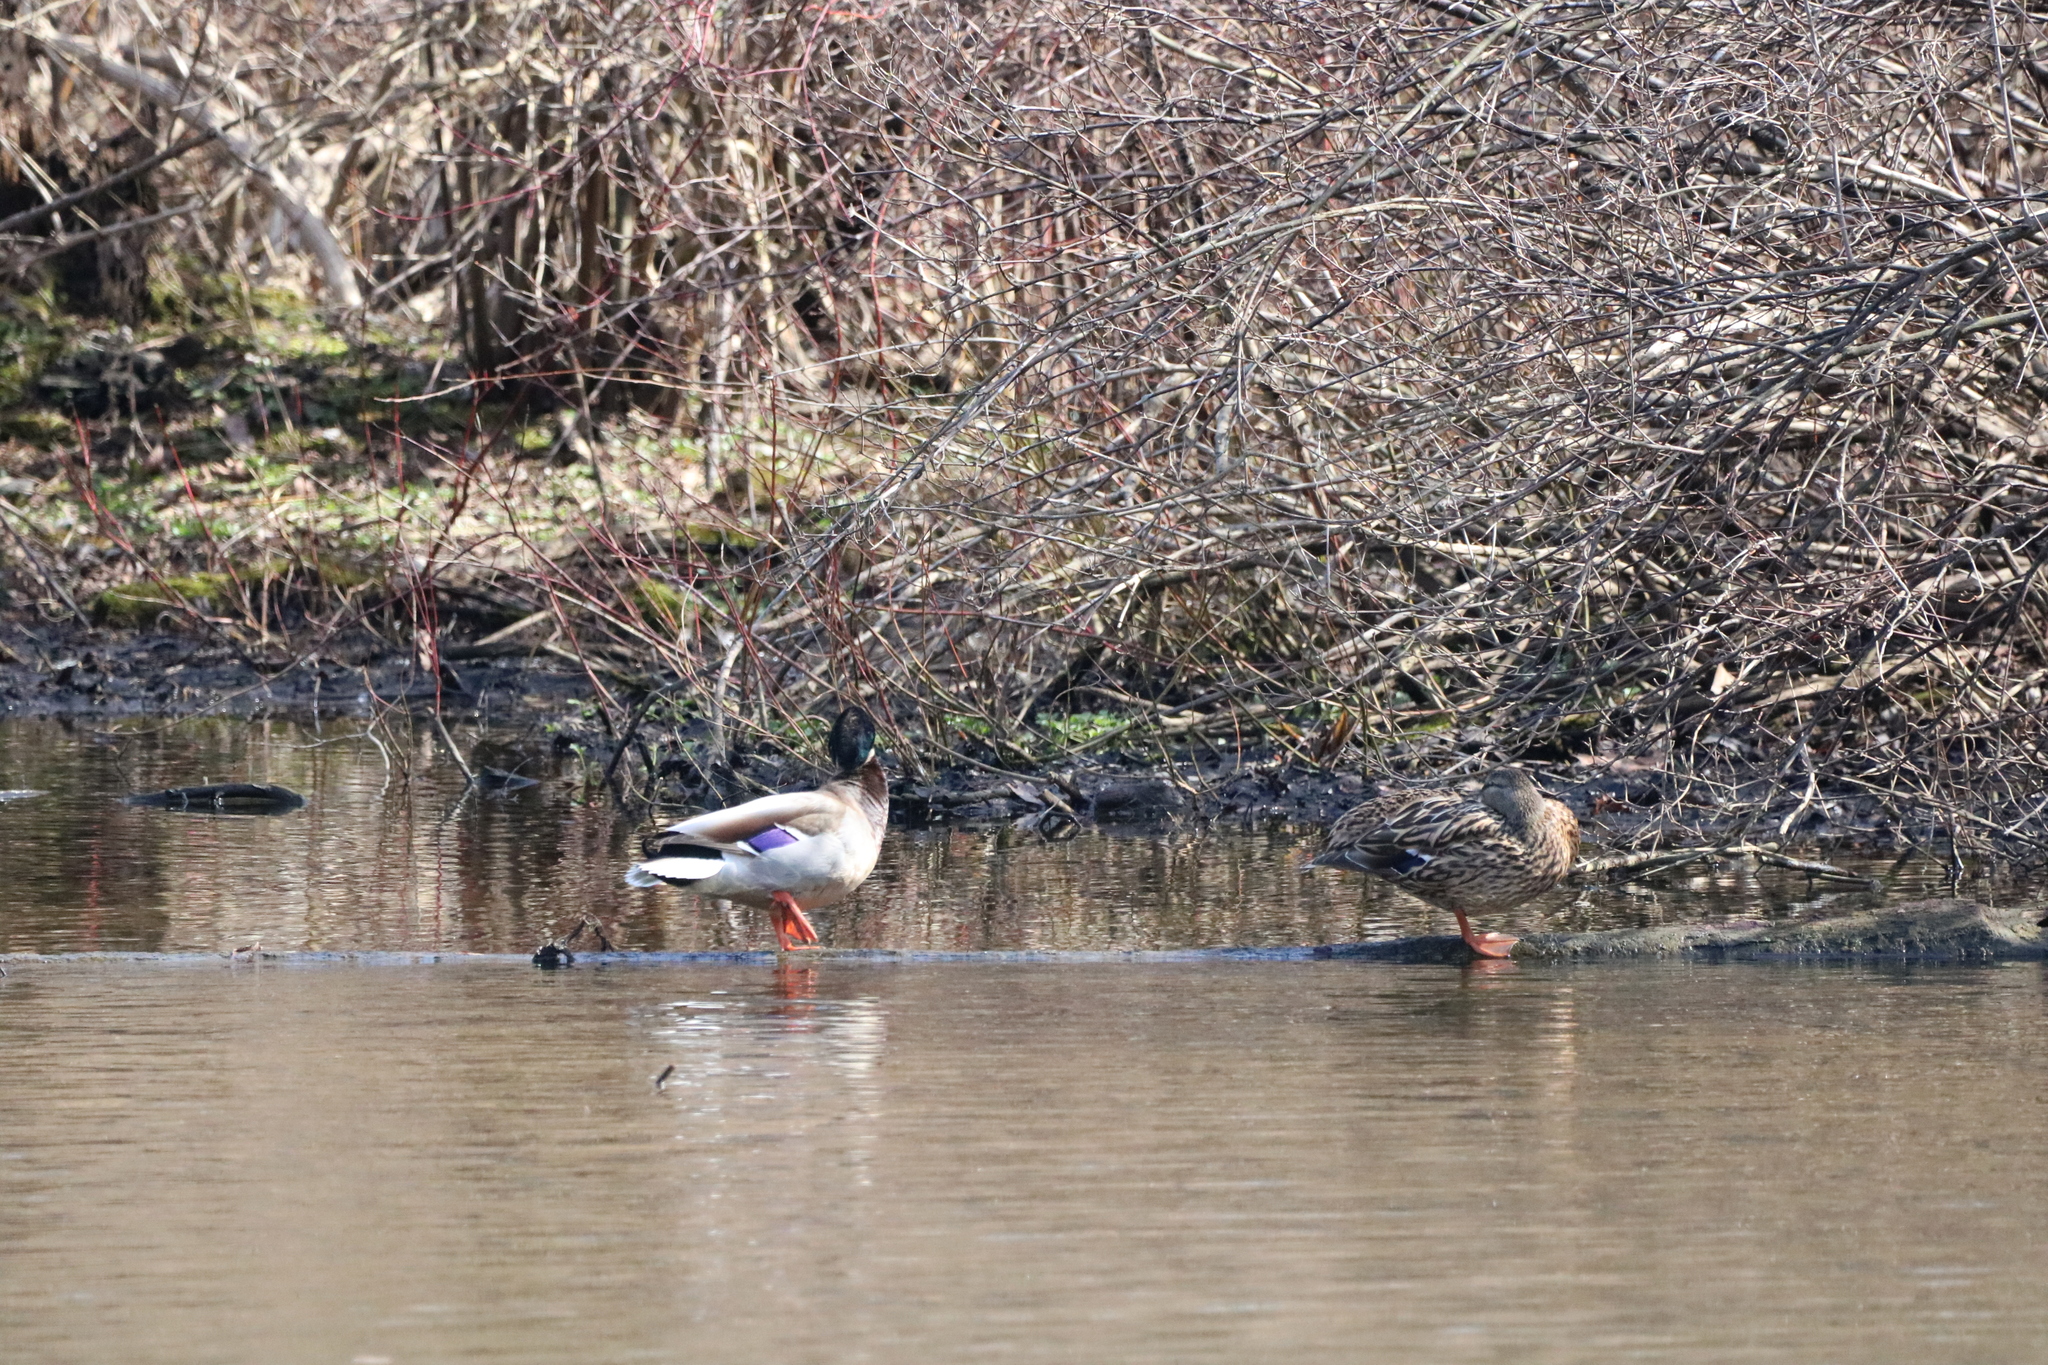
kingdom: Animalia
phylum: Chordata
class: Aves
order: Anseriformes
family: Anatidae
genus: Anas
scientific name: Anas platyrhynchos
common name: Mallard
